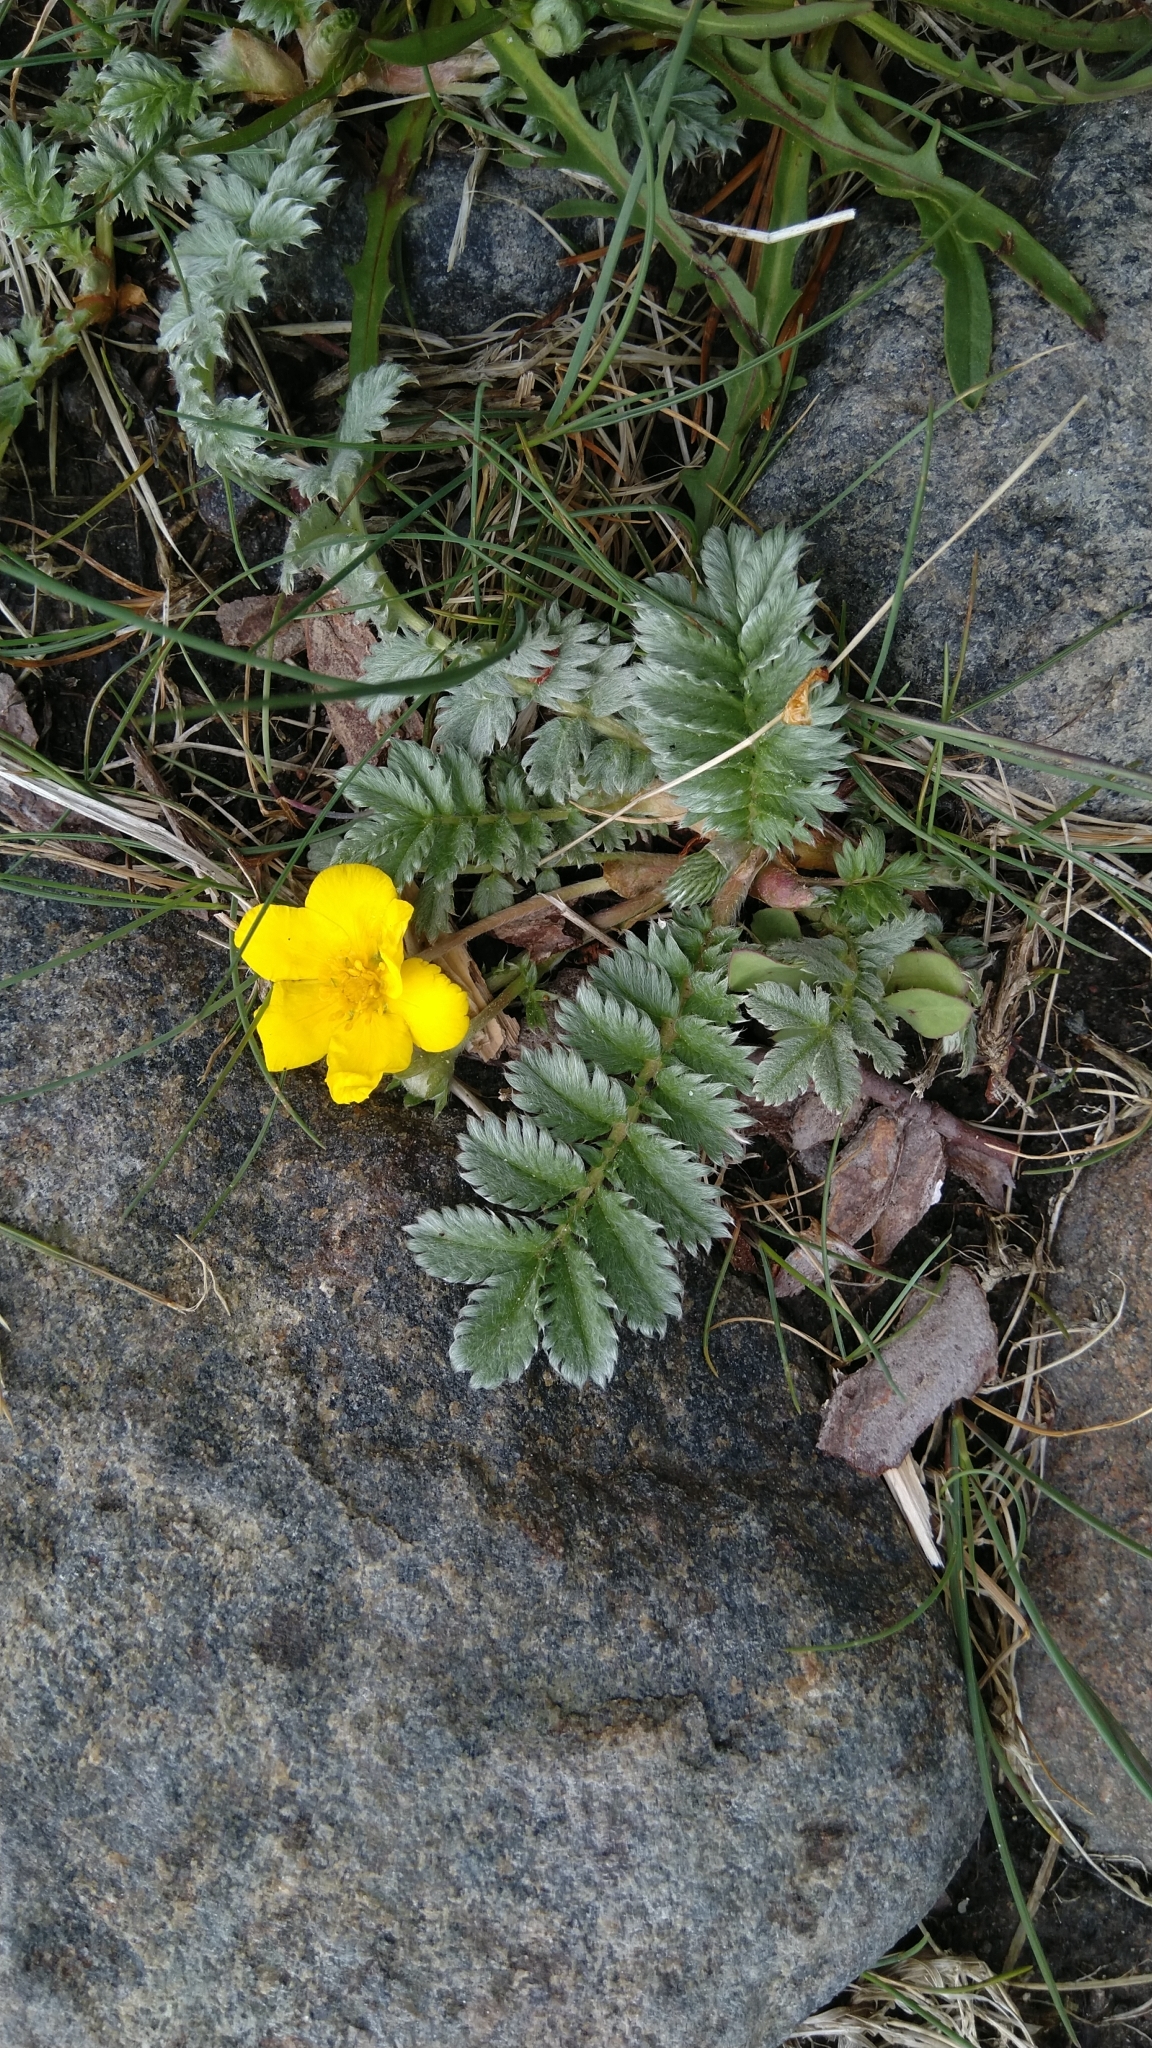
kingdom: Plantae
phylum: Tracheophyta
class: Magnoliopsida
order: Rosales
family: Rosaceae
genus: Argentina
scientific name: Argentina anserina
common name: Common silverweed
